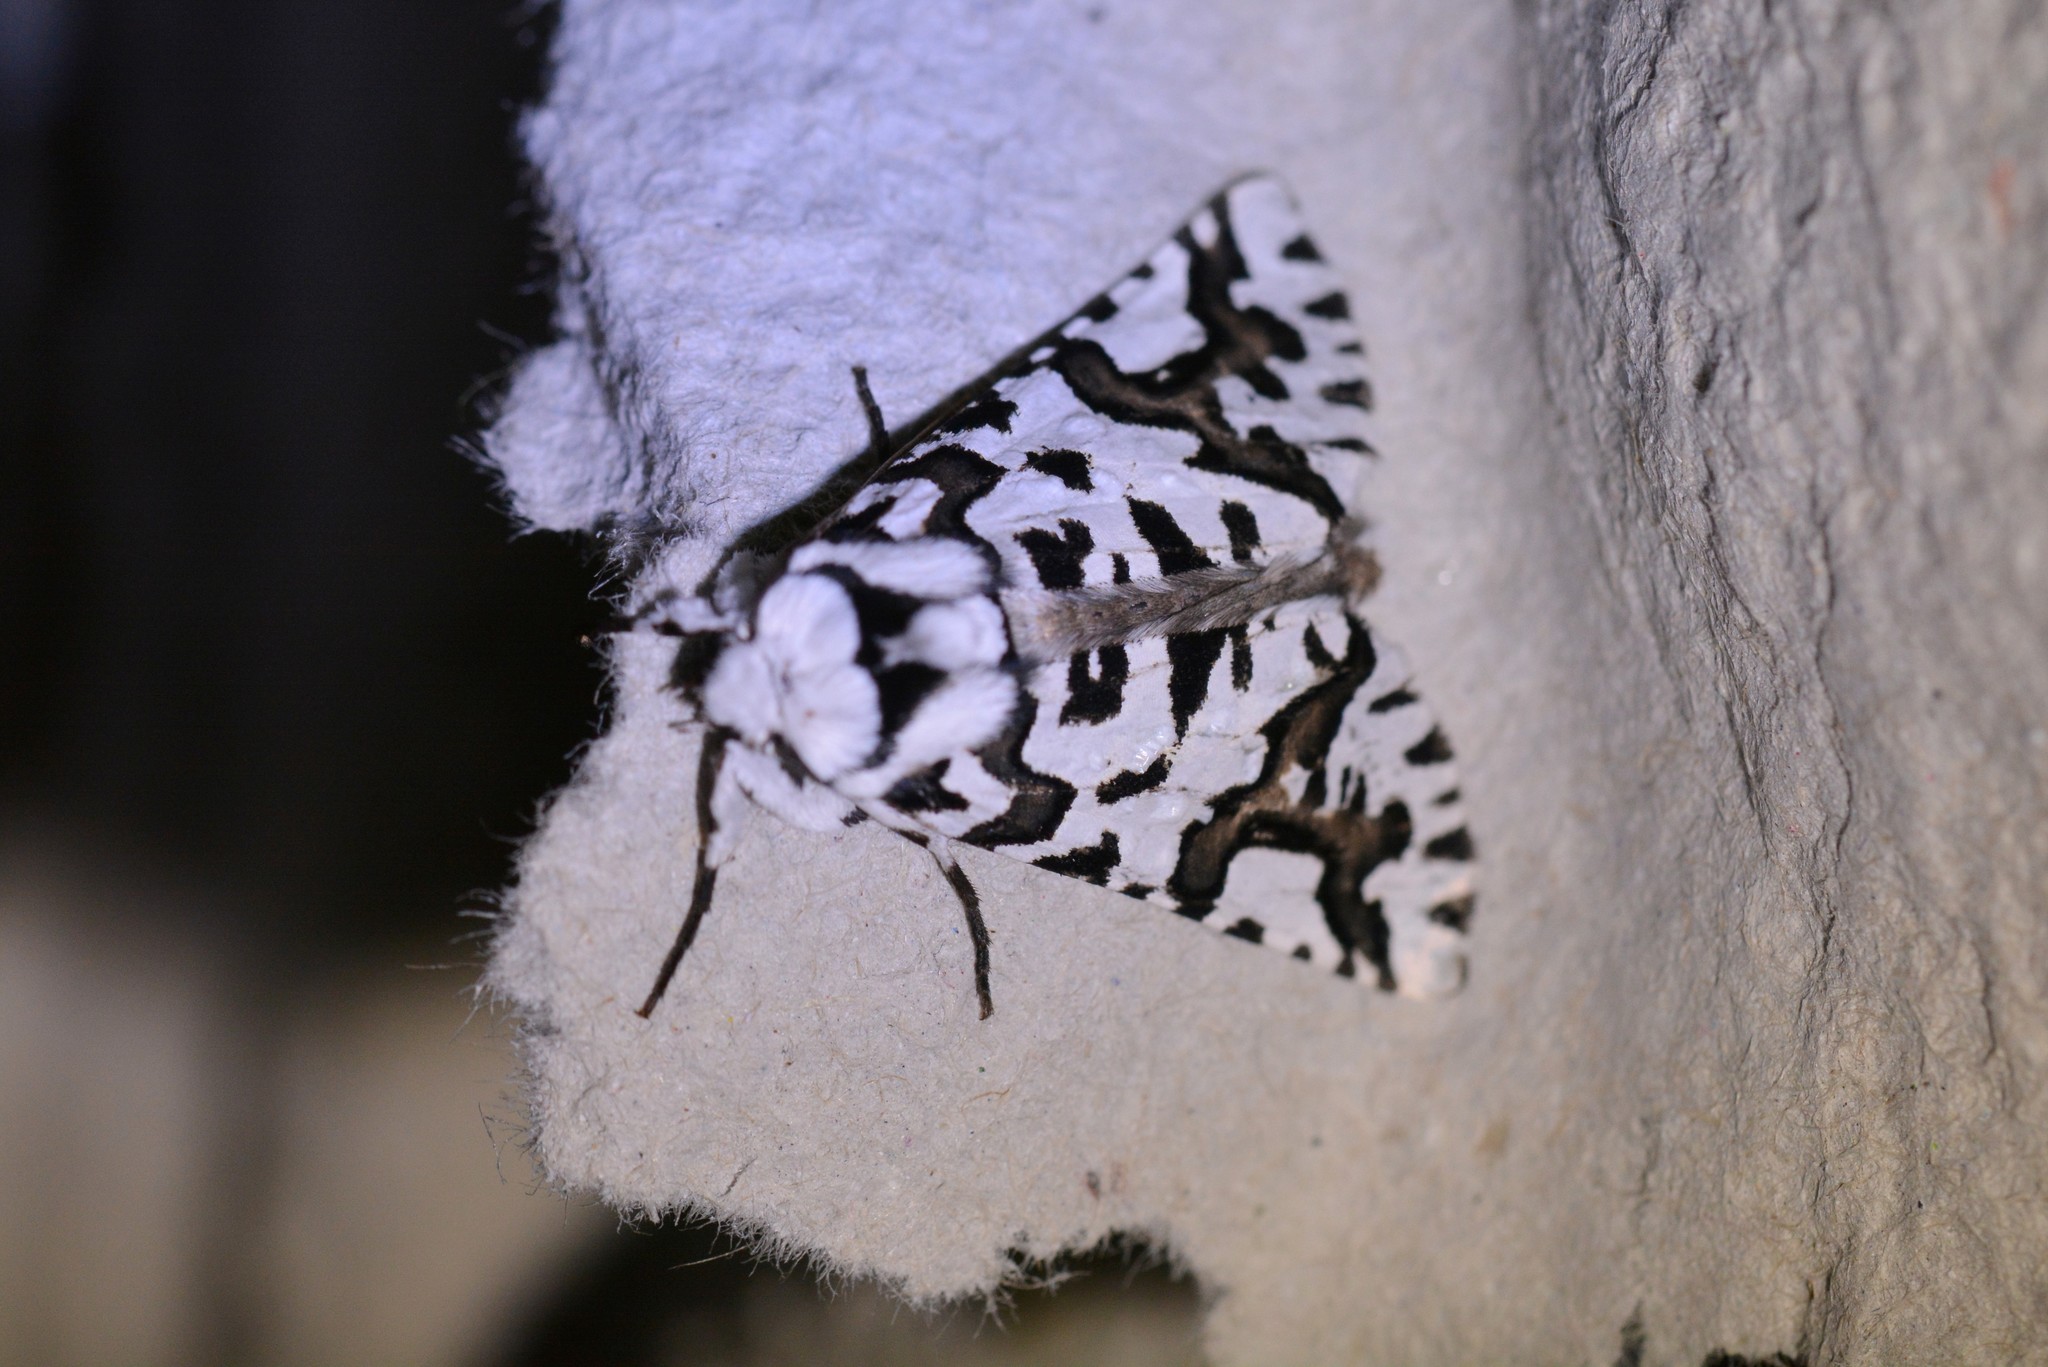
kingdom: Animalia
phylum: Arthropoda
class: Insecta
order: Lepidoptera
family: Geometridae
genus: Declana
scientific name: Declana
